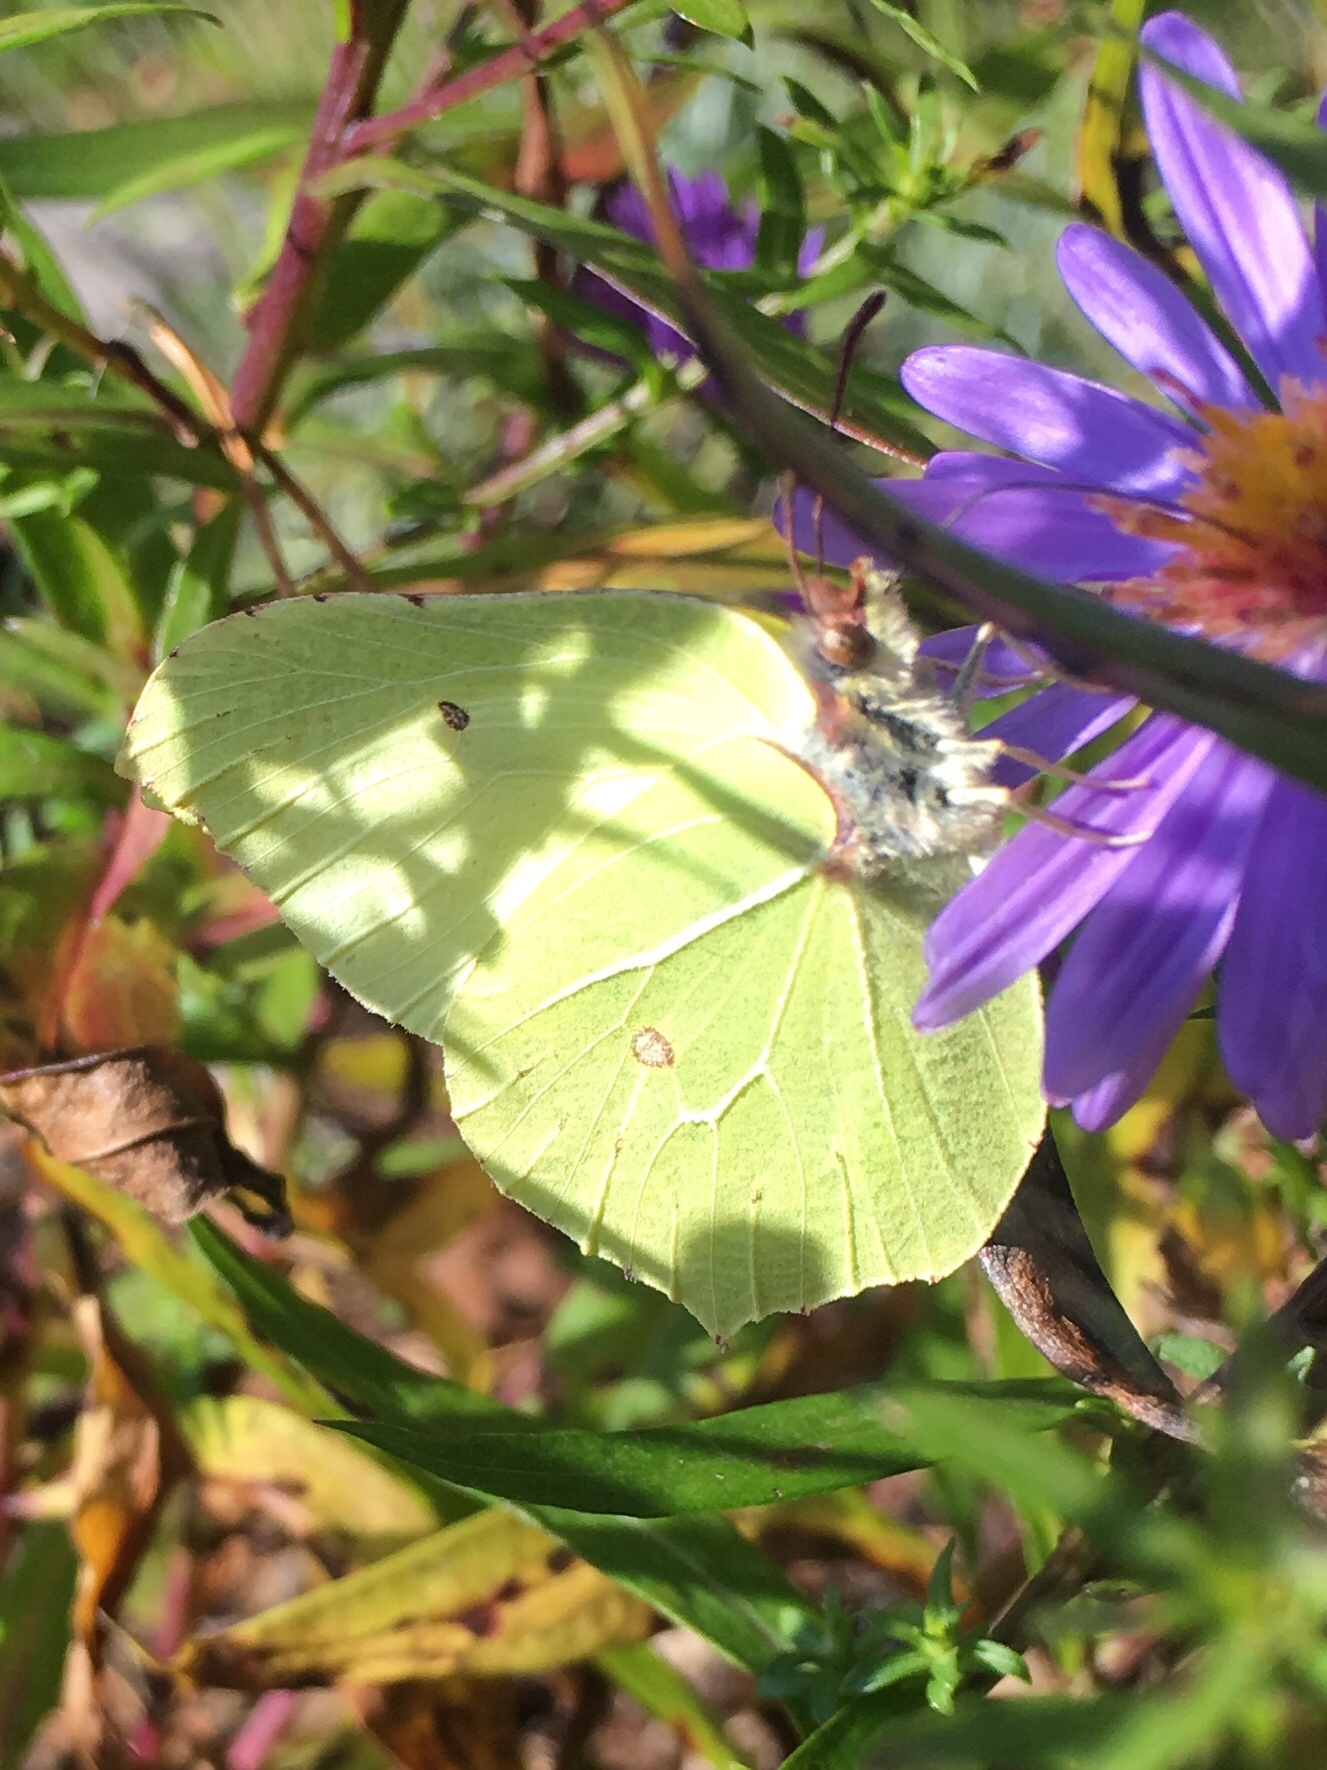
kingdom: Animalia
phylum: Arthropoda
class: Insecta
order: Lepidoptera
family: Pieridae
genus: Gonepteryx
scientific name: Gonepteryx rhamni
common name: Brimstone
